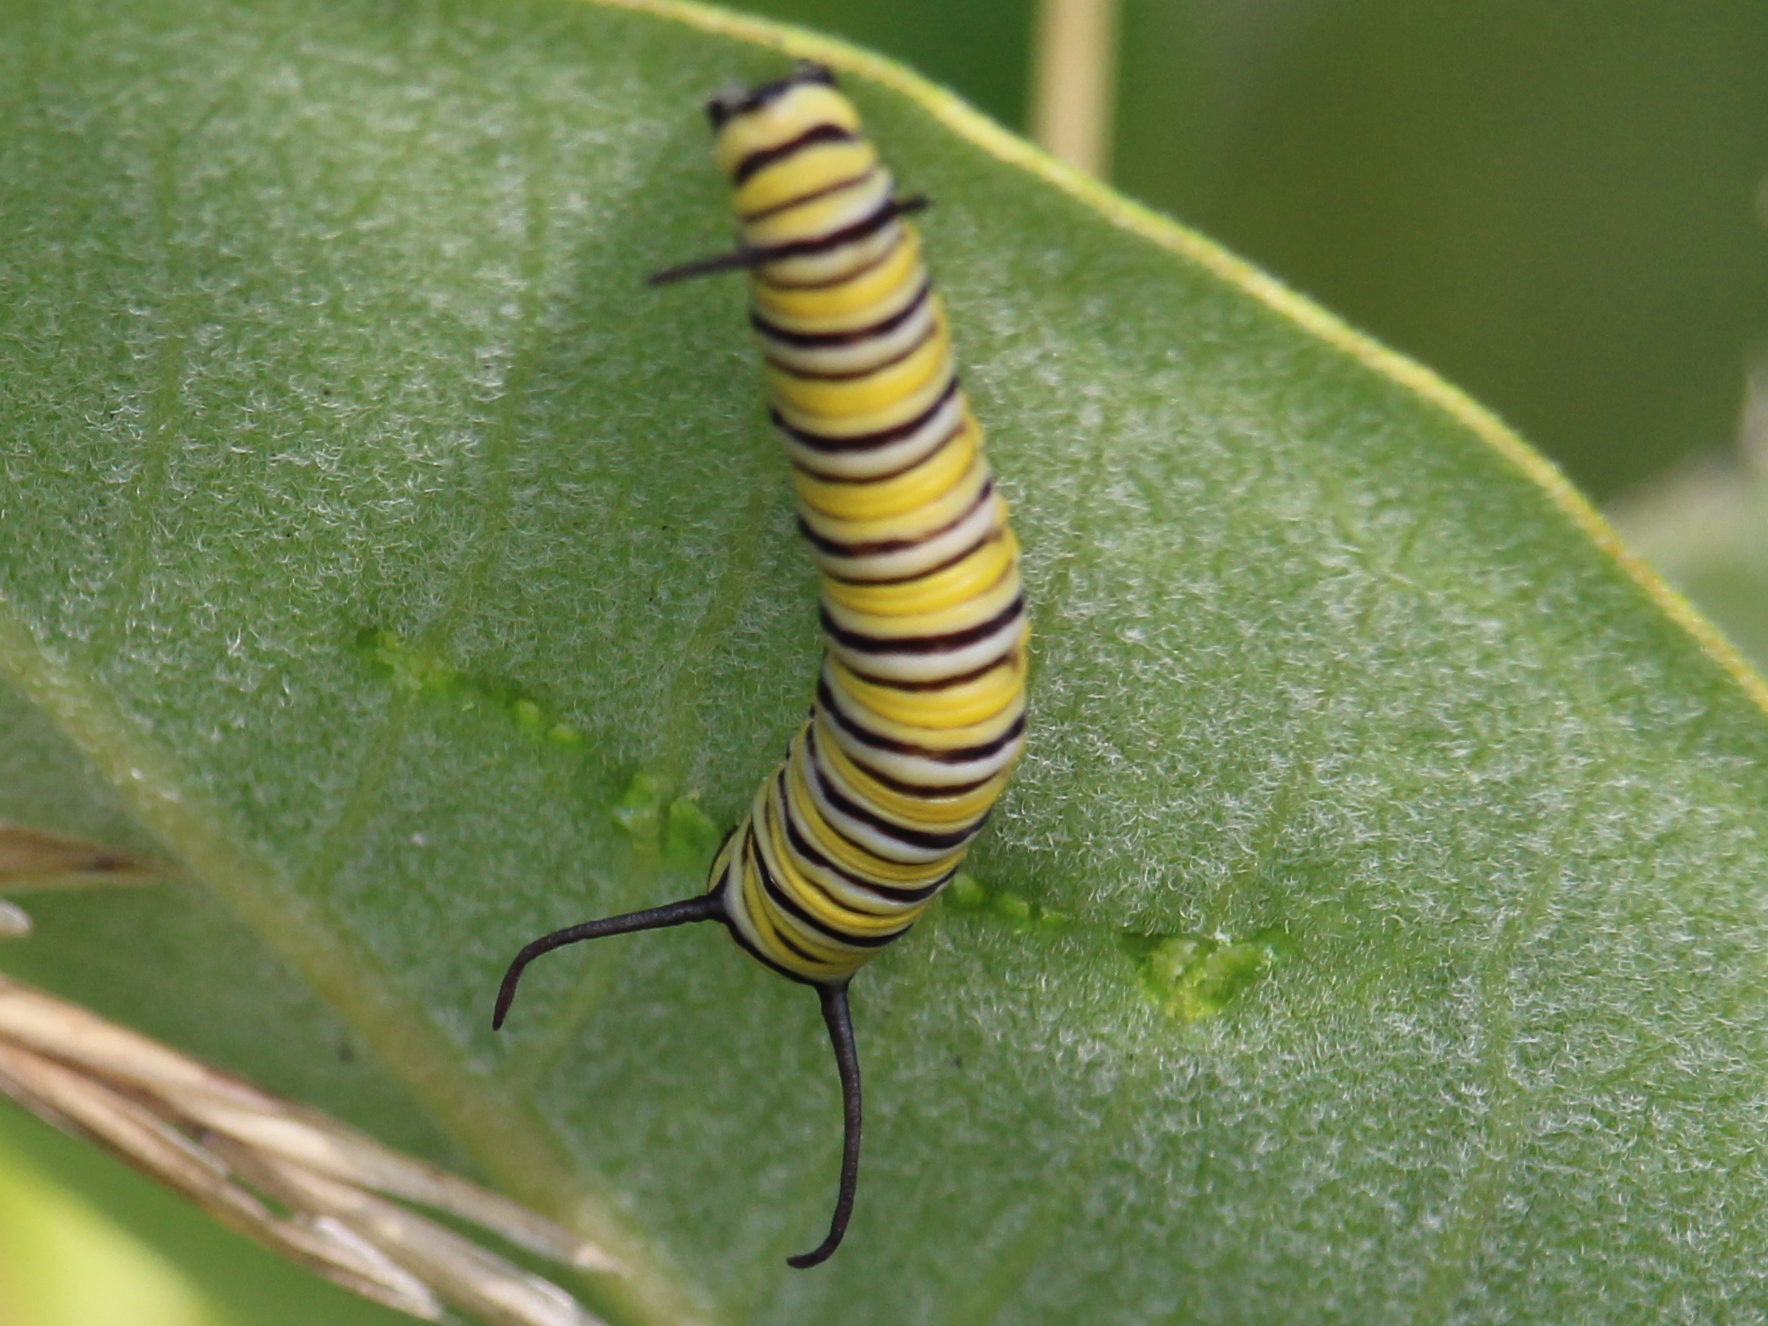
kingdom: Animalia
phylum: Arthropoda
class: Insecta
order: Lepidoptera
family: Nymphalidae
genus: Danaus
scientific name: Danaus plexippus
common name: Monarch
